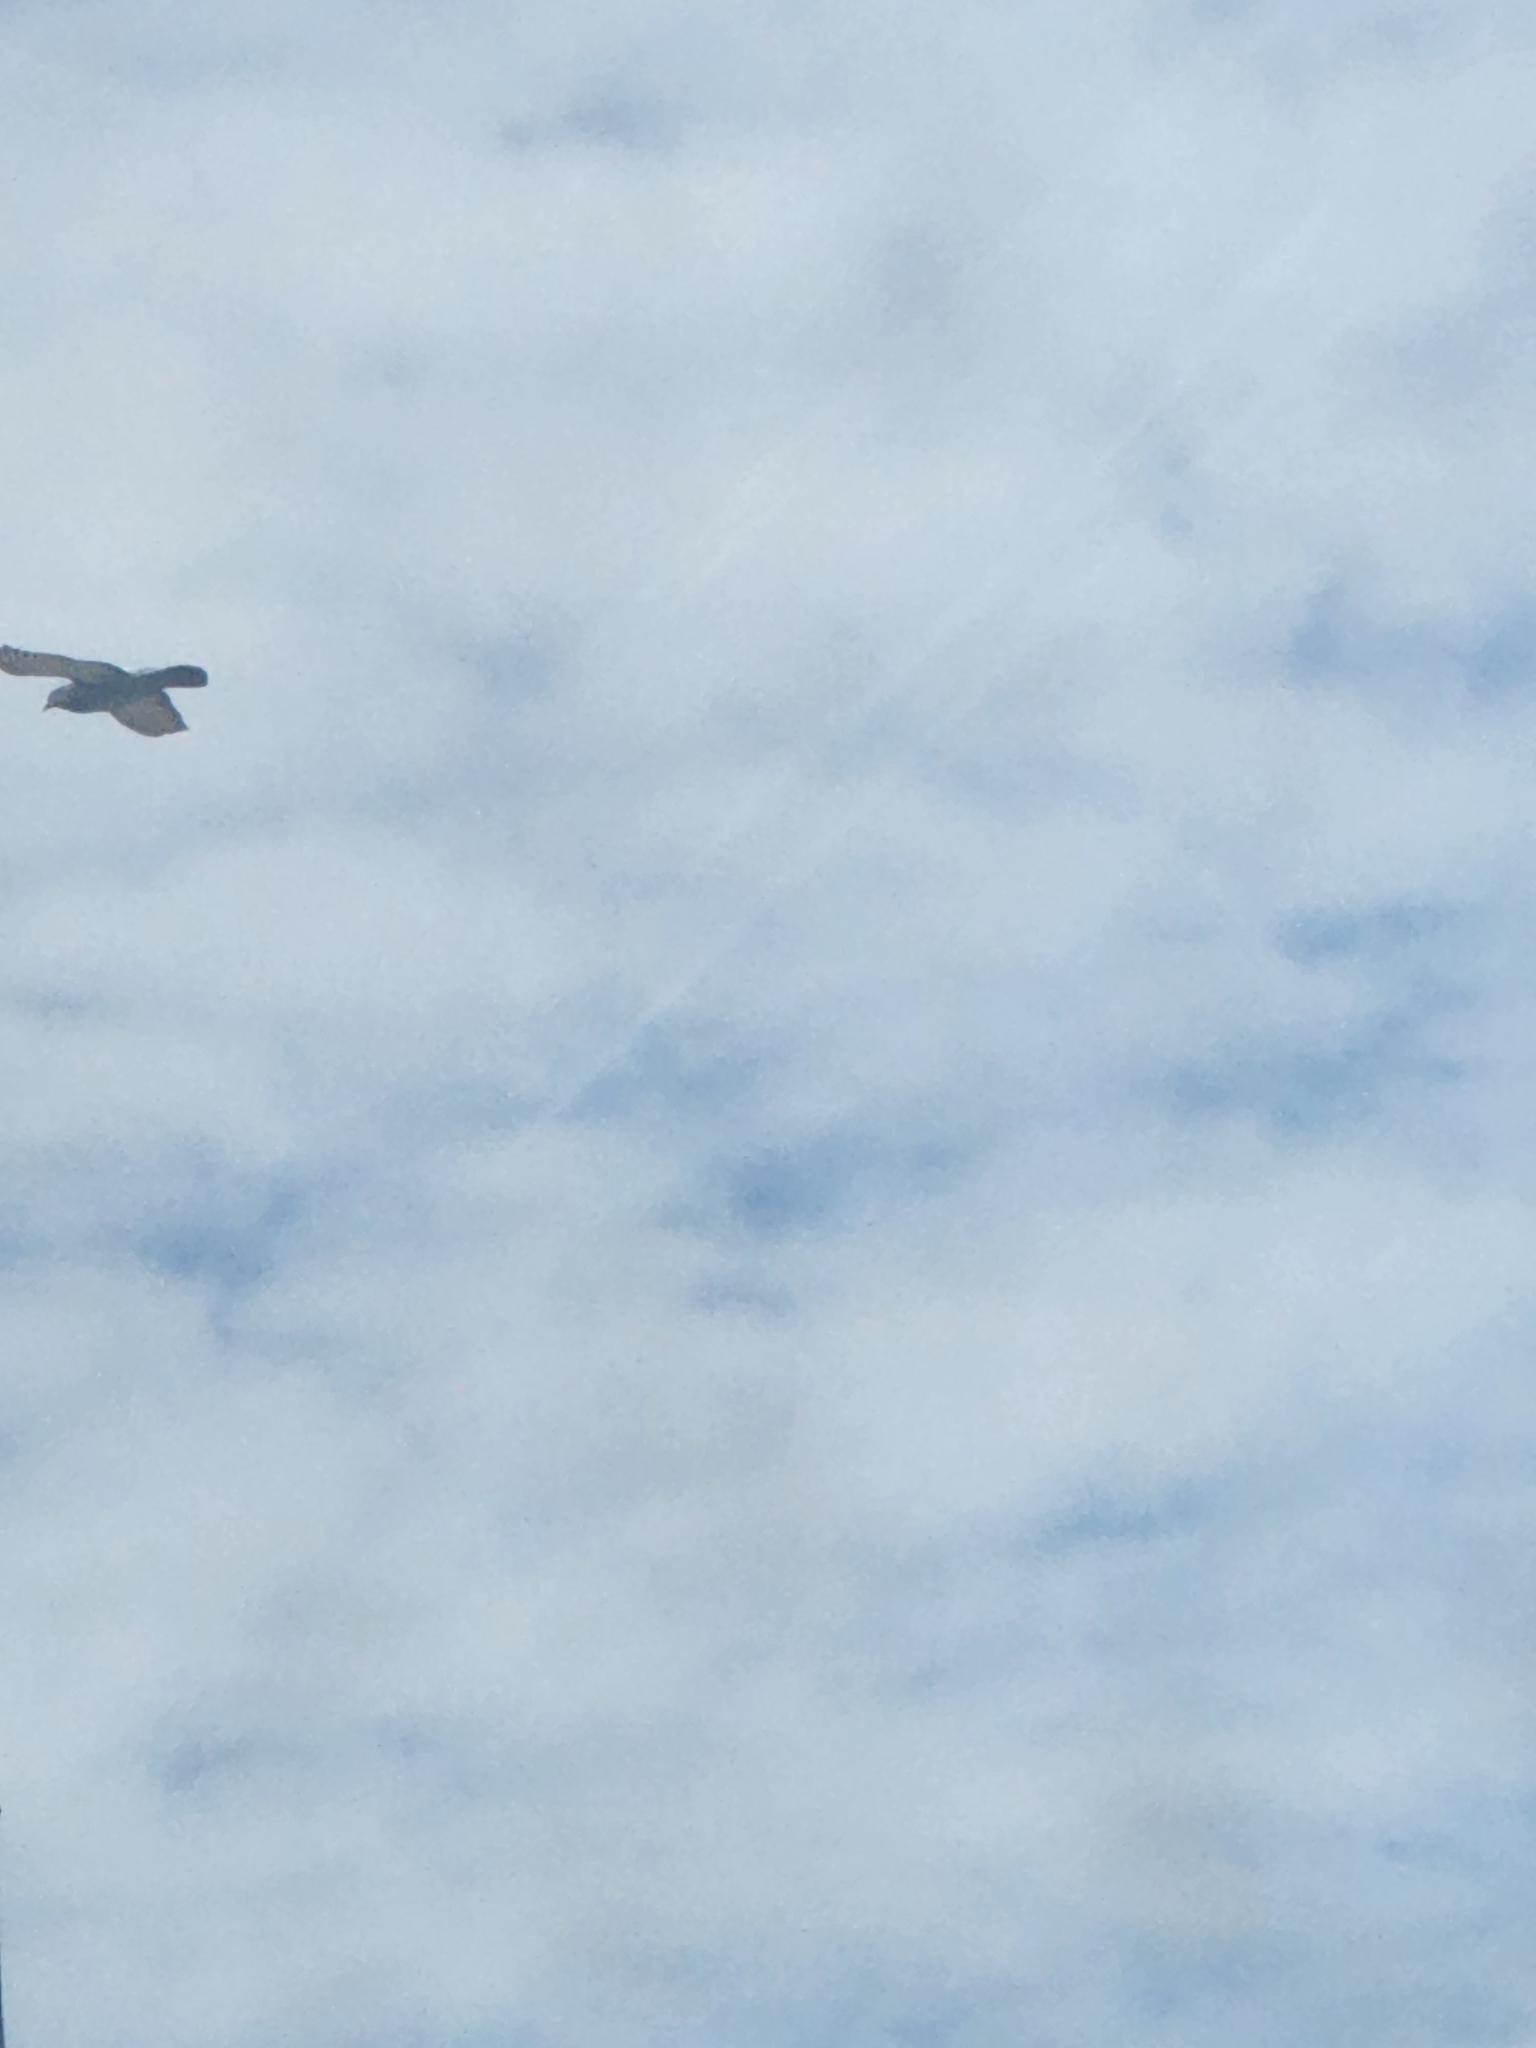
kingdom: Animalia
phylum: Chordata
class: Aves
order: Columbiformes
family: Columbidae
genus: Columba
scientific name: Columba livia
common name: Rock pigeon
